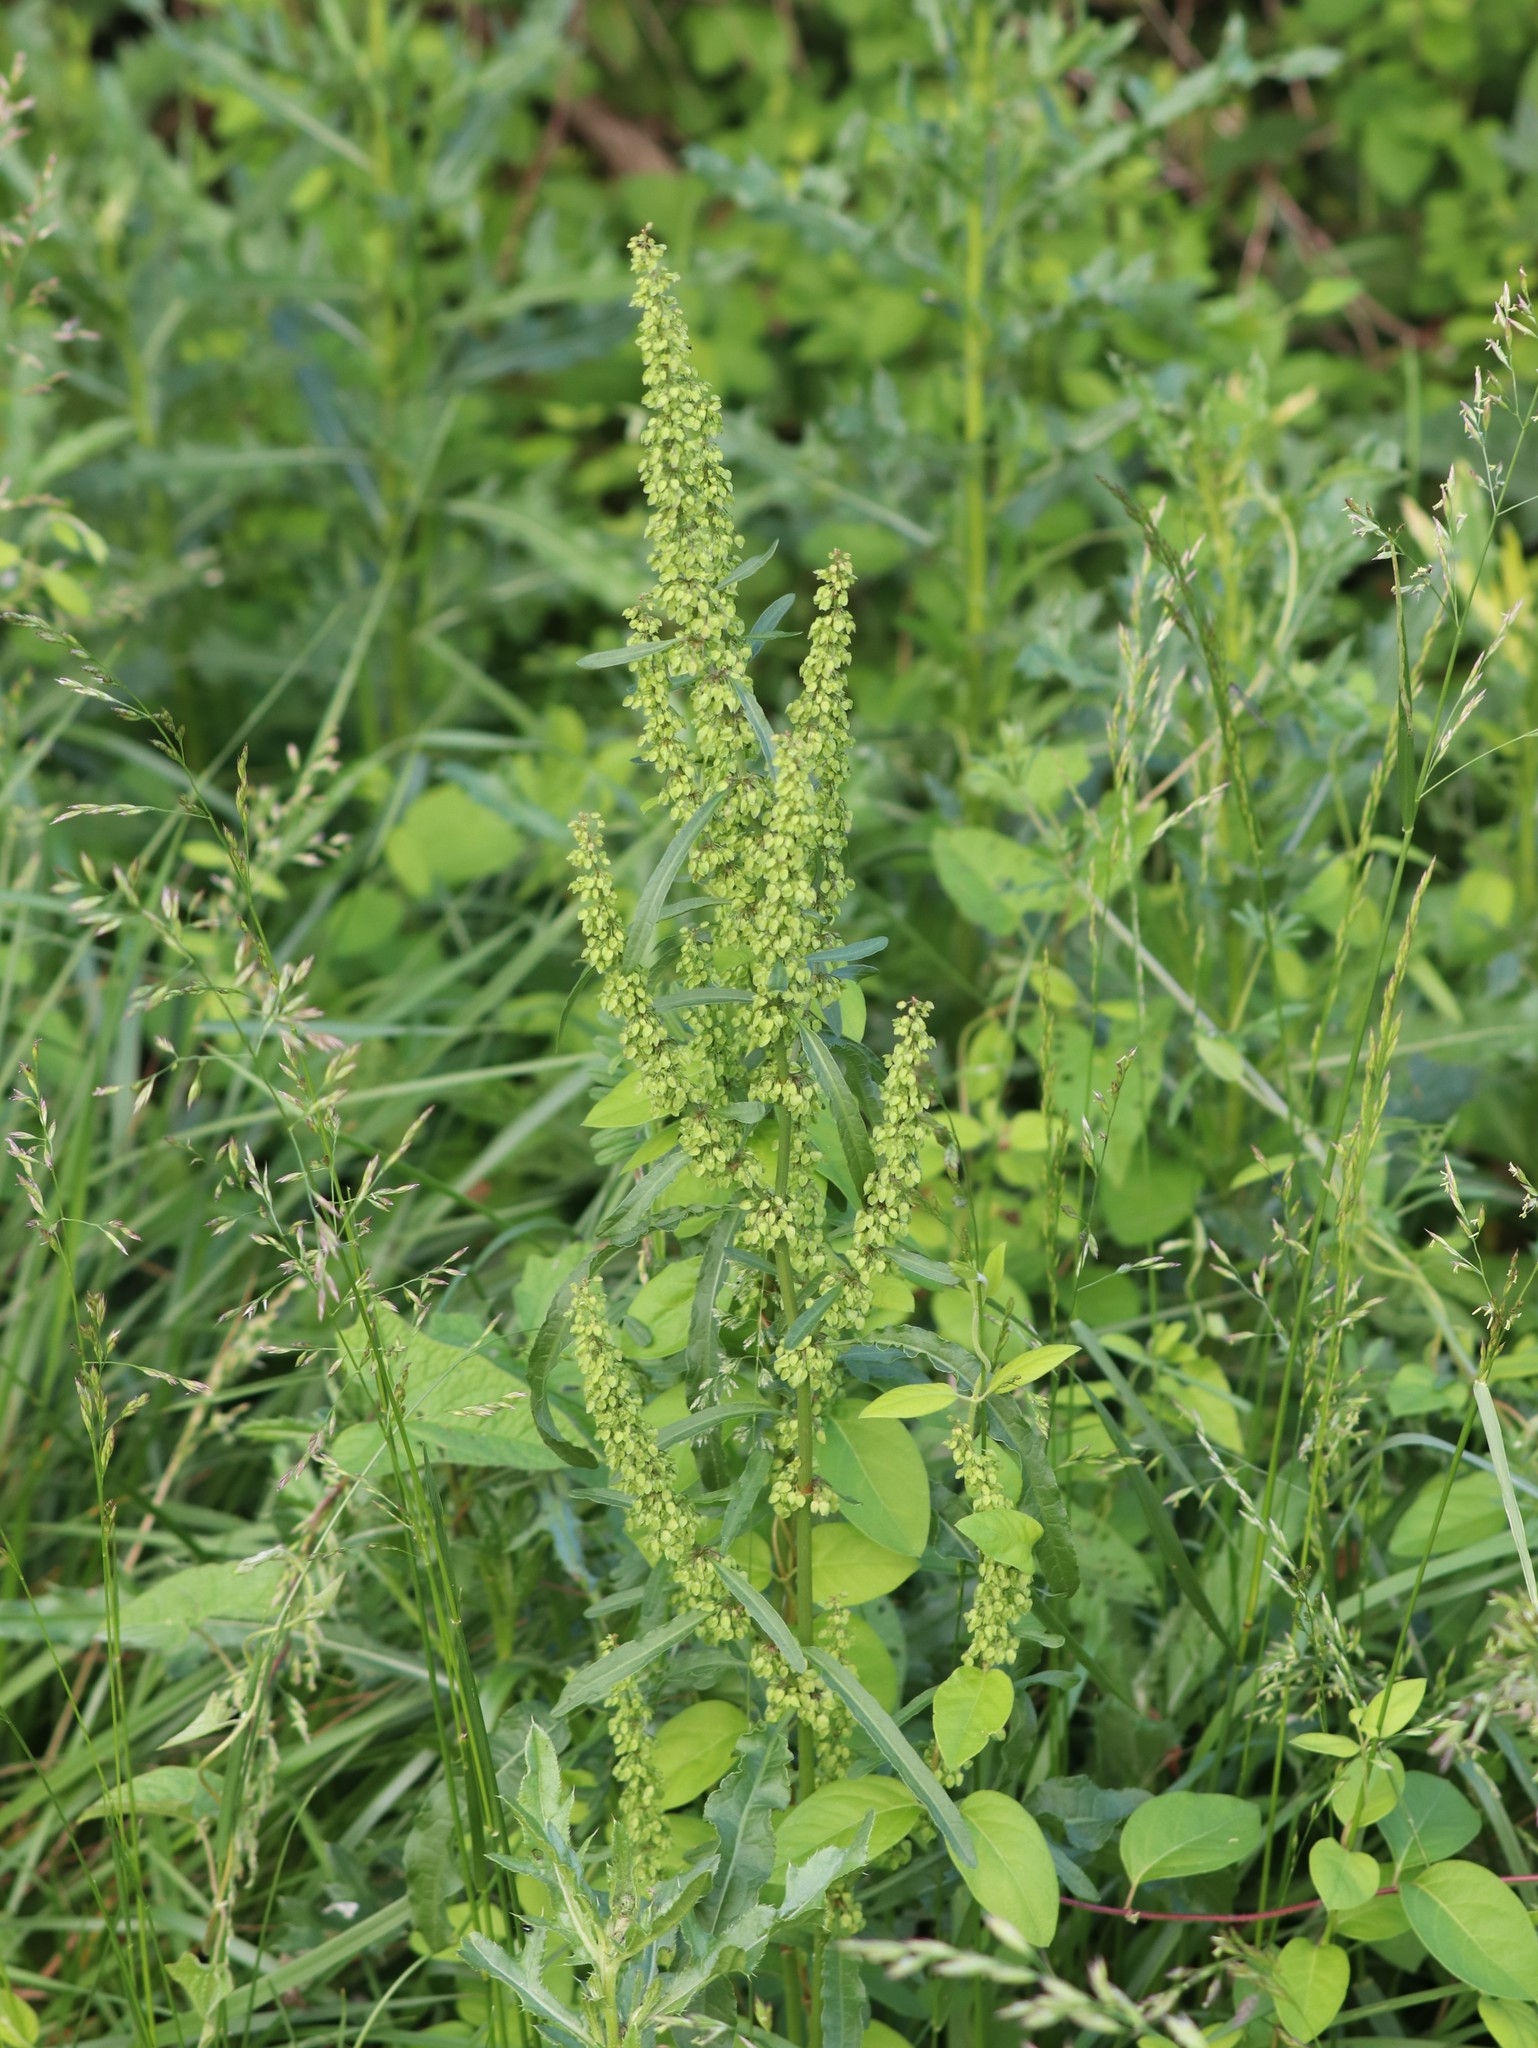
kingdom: Plantae
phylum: Tracheophyta
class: Magnoliopsida
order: Caryophyllales
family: Polygonaceae
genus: Rumex
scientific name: Rumex crispus
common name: Curled dock
